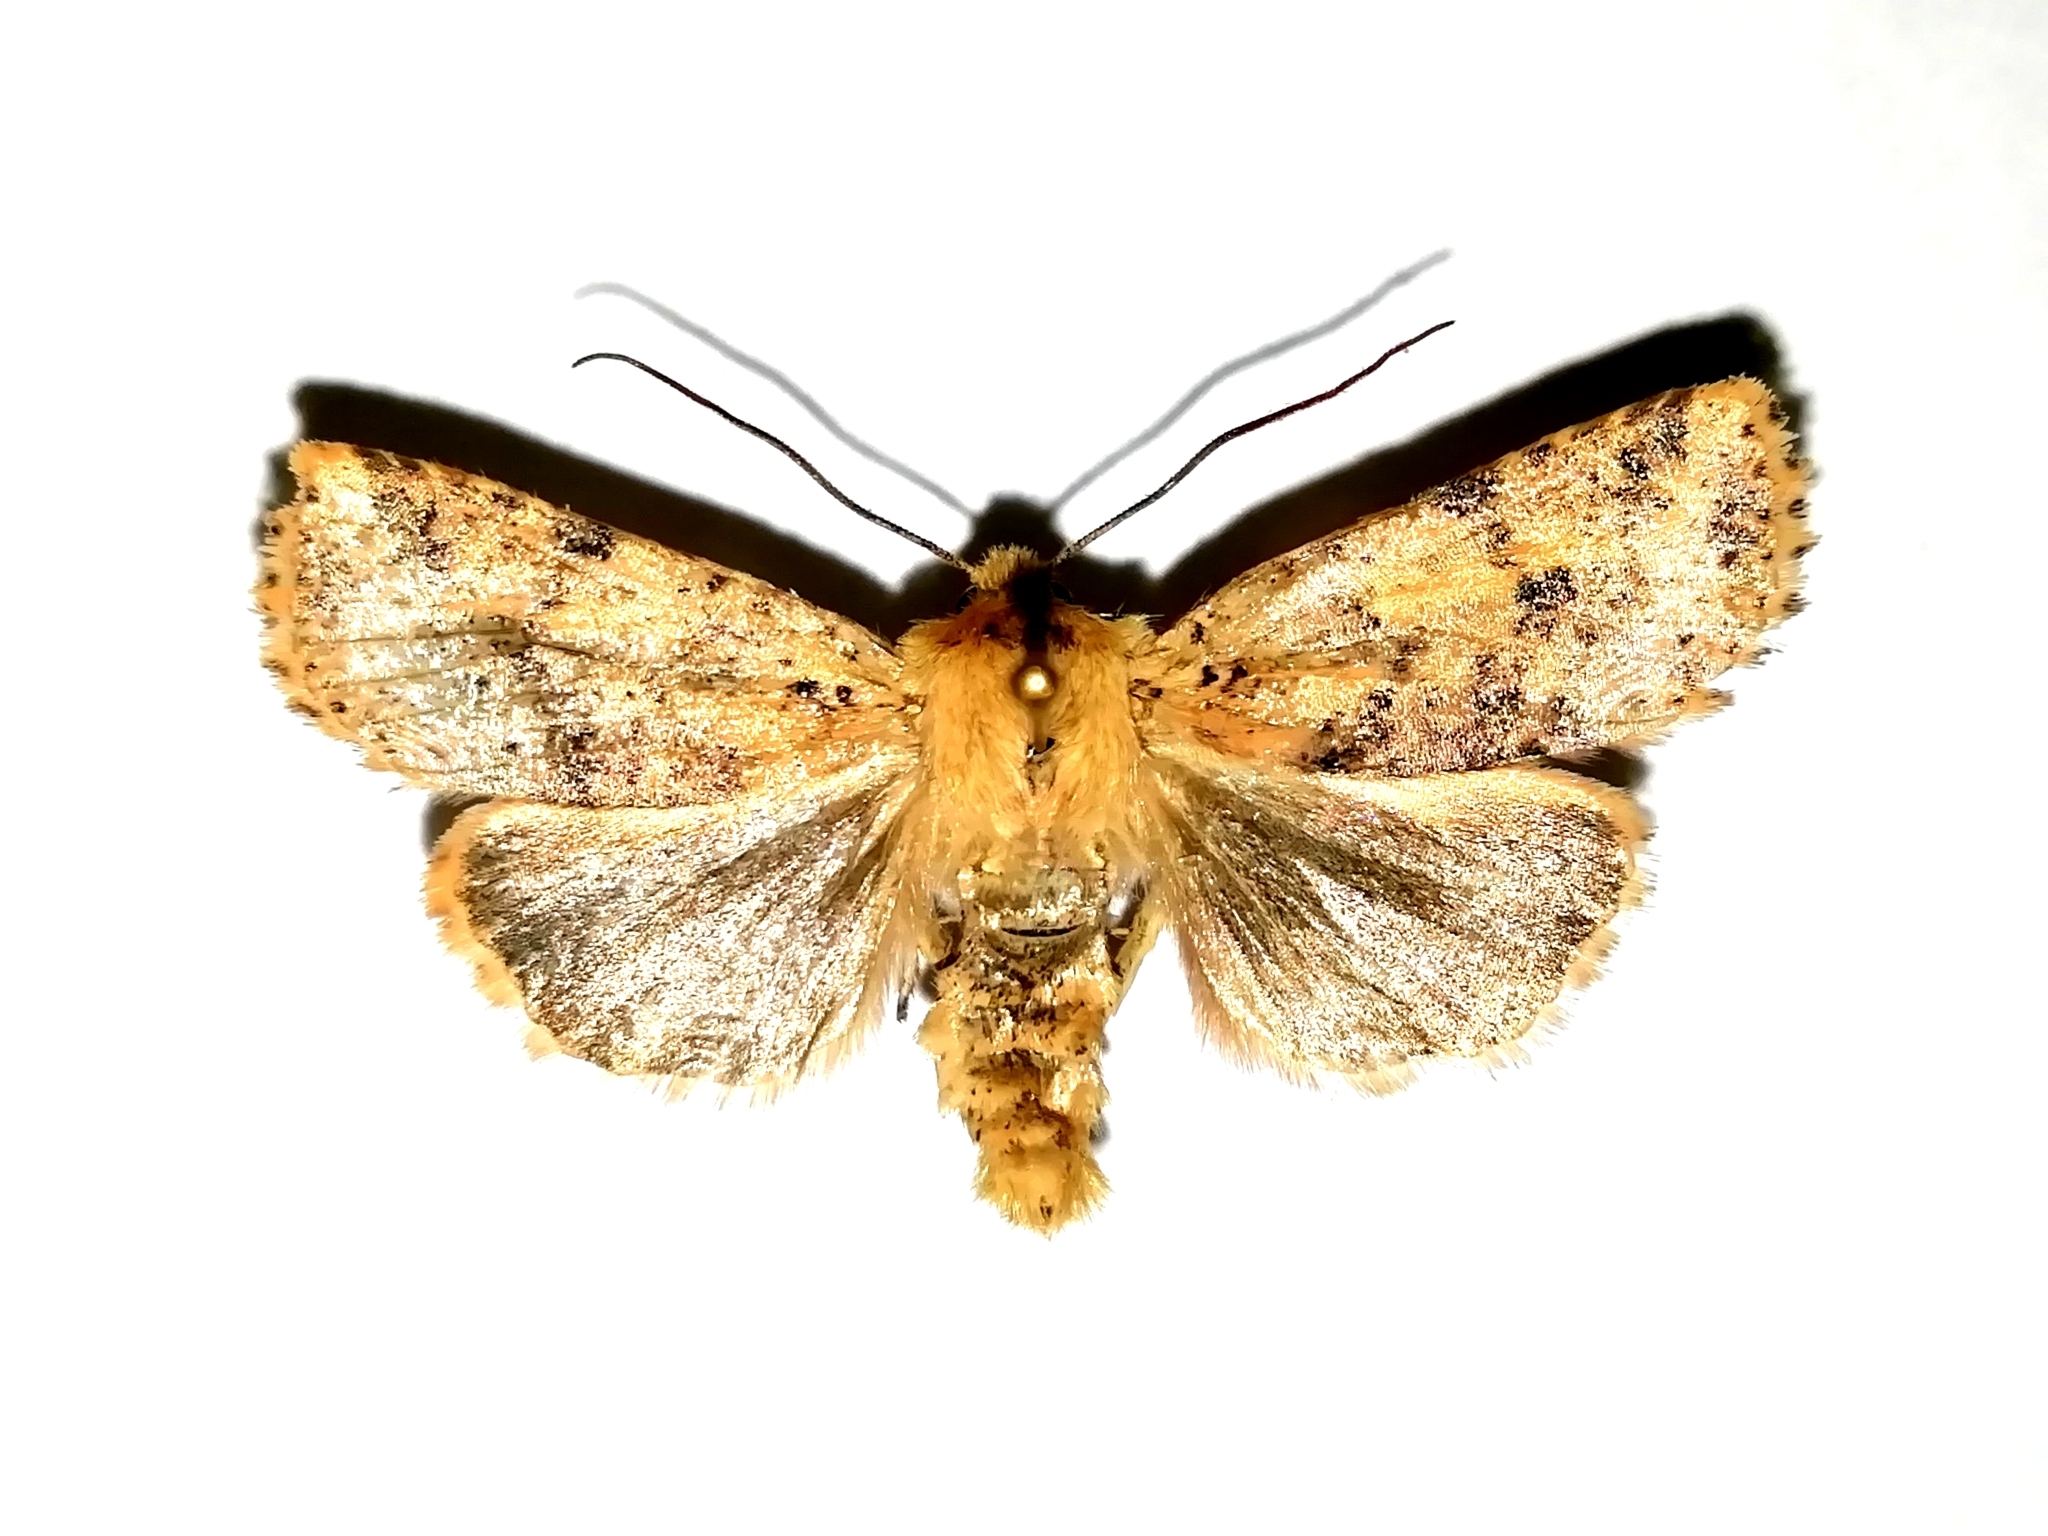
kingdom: Animalia
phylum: Arthropoda
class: Insecta
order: Lepidoptera
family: Noctuidae
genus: Conistra
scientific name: Conistra rubiginea
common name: Dotted chestnut
